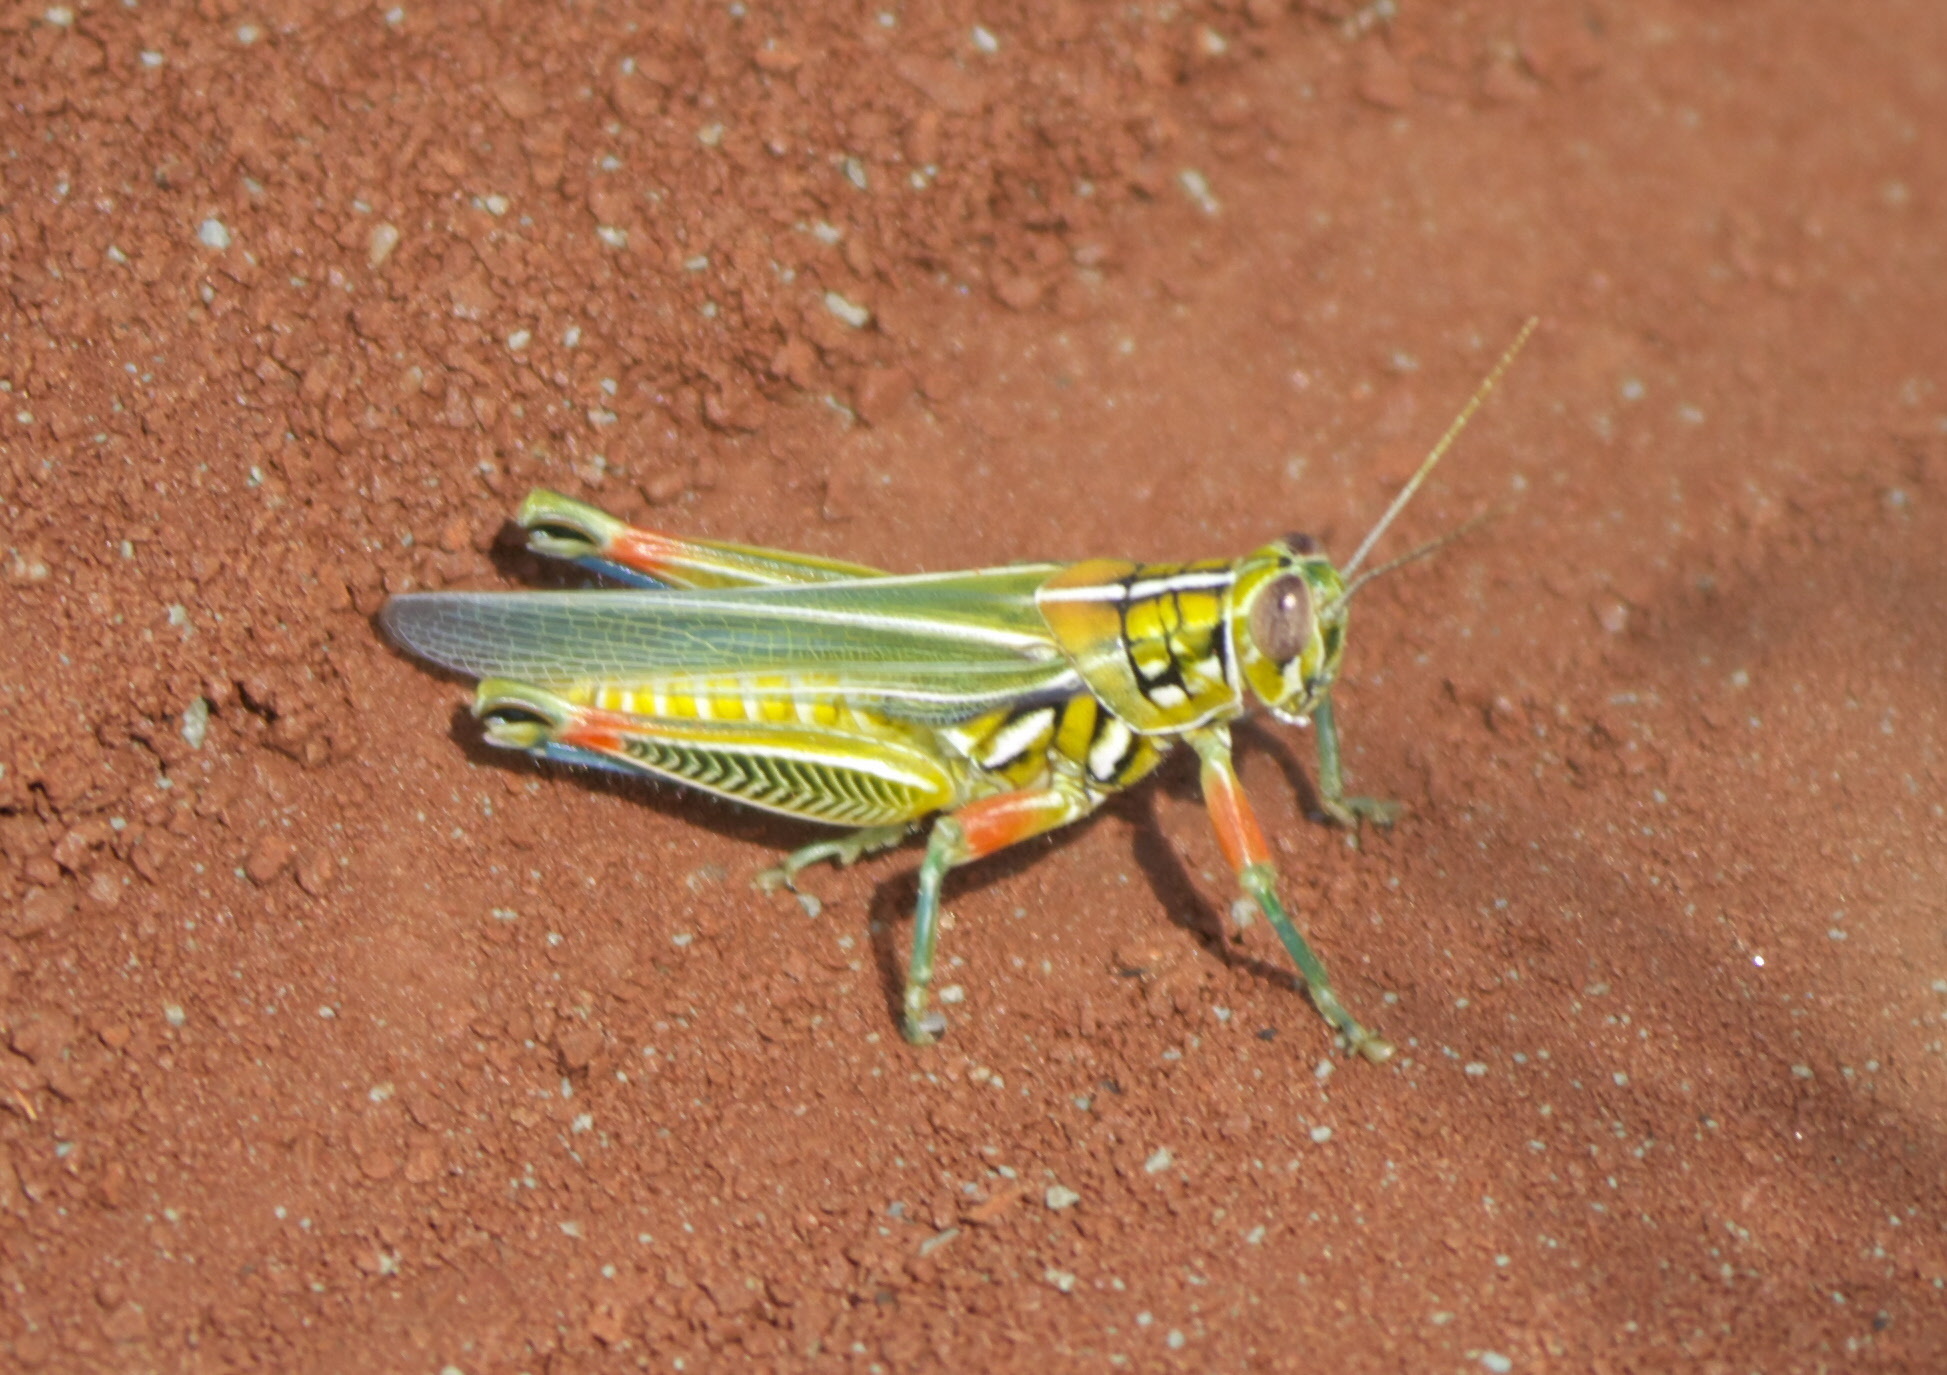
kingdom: Animalia
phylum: Arthropoda
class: Insecta
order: Orthoptera
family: Acrididae
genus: Hesperotettix
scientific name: Hesperotettix viridis
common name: Meadow purple-striped grasshopper
